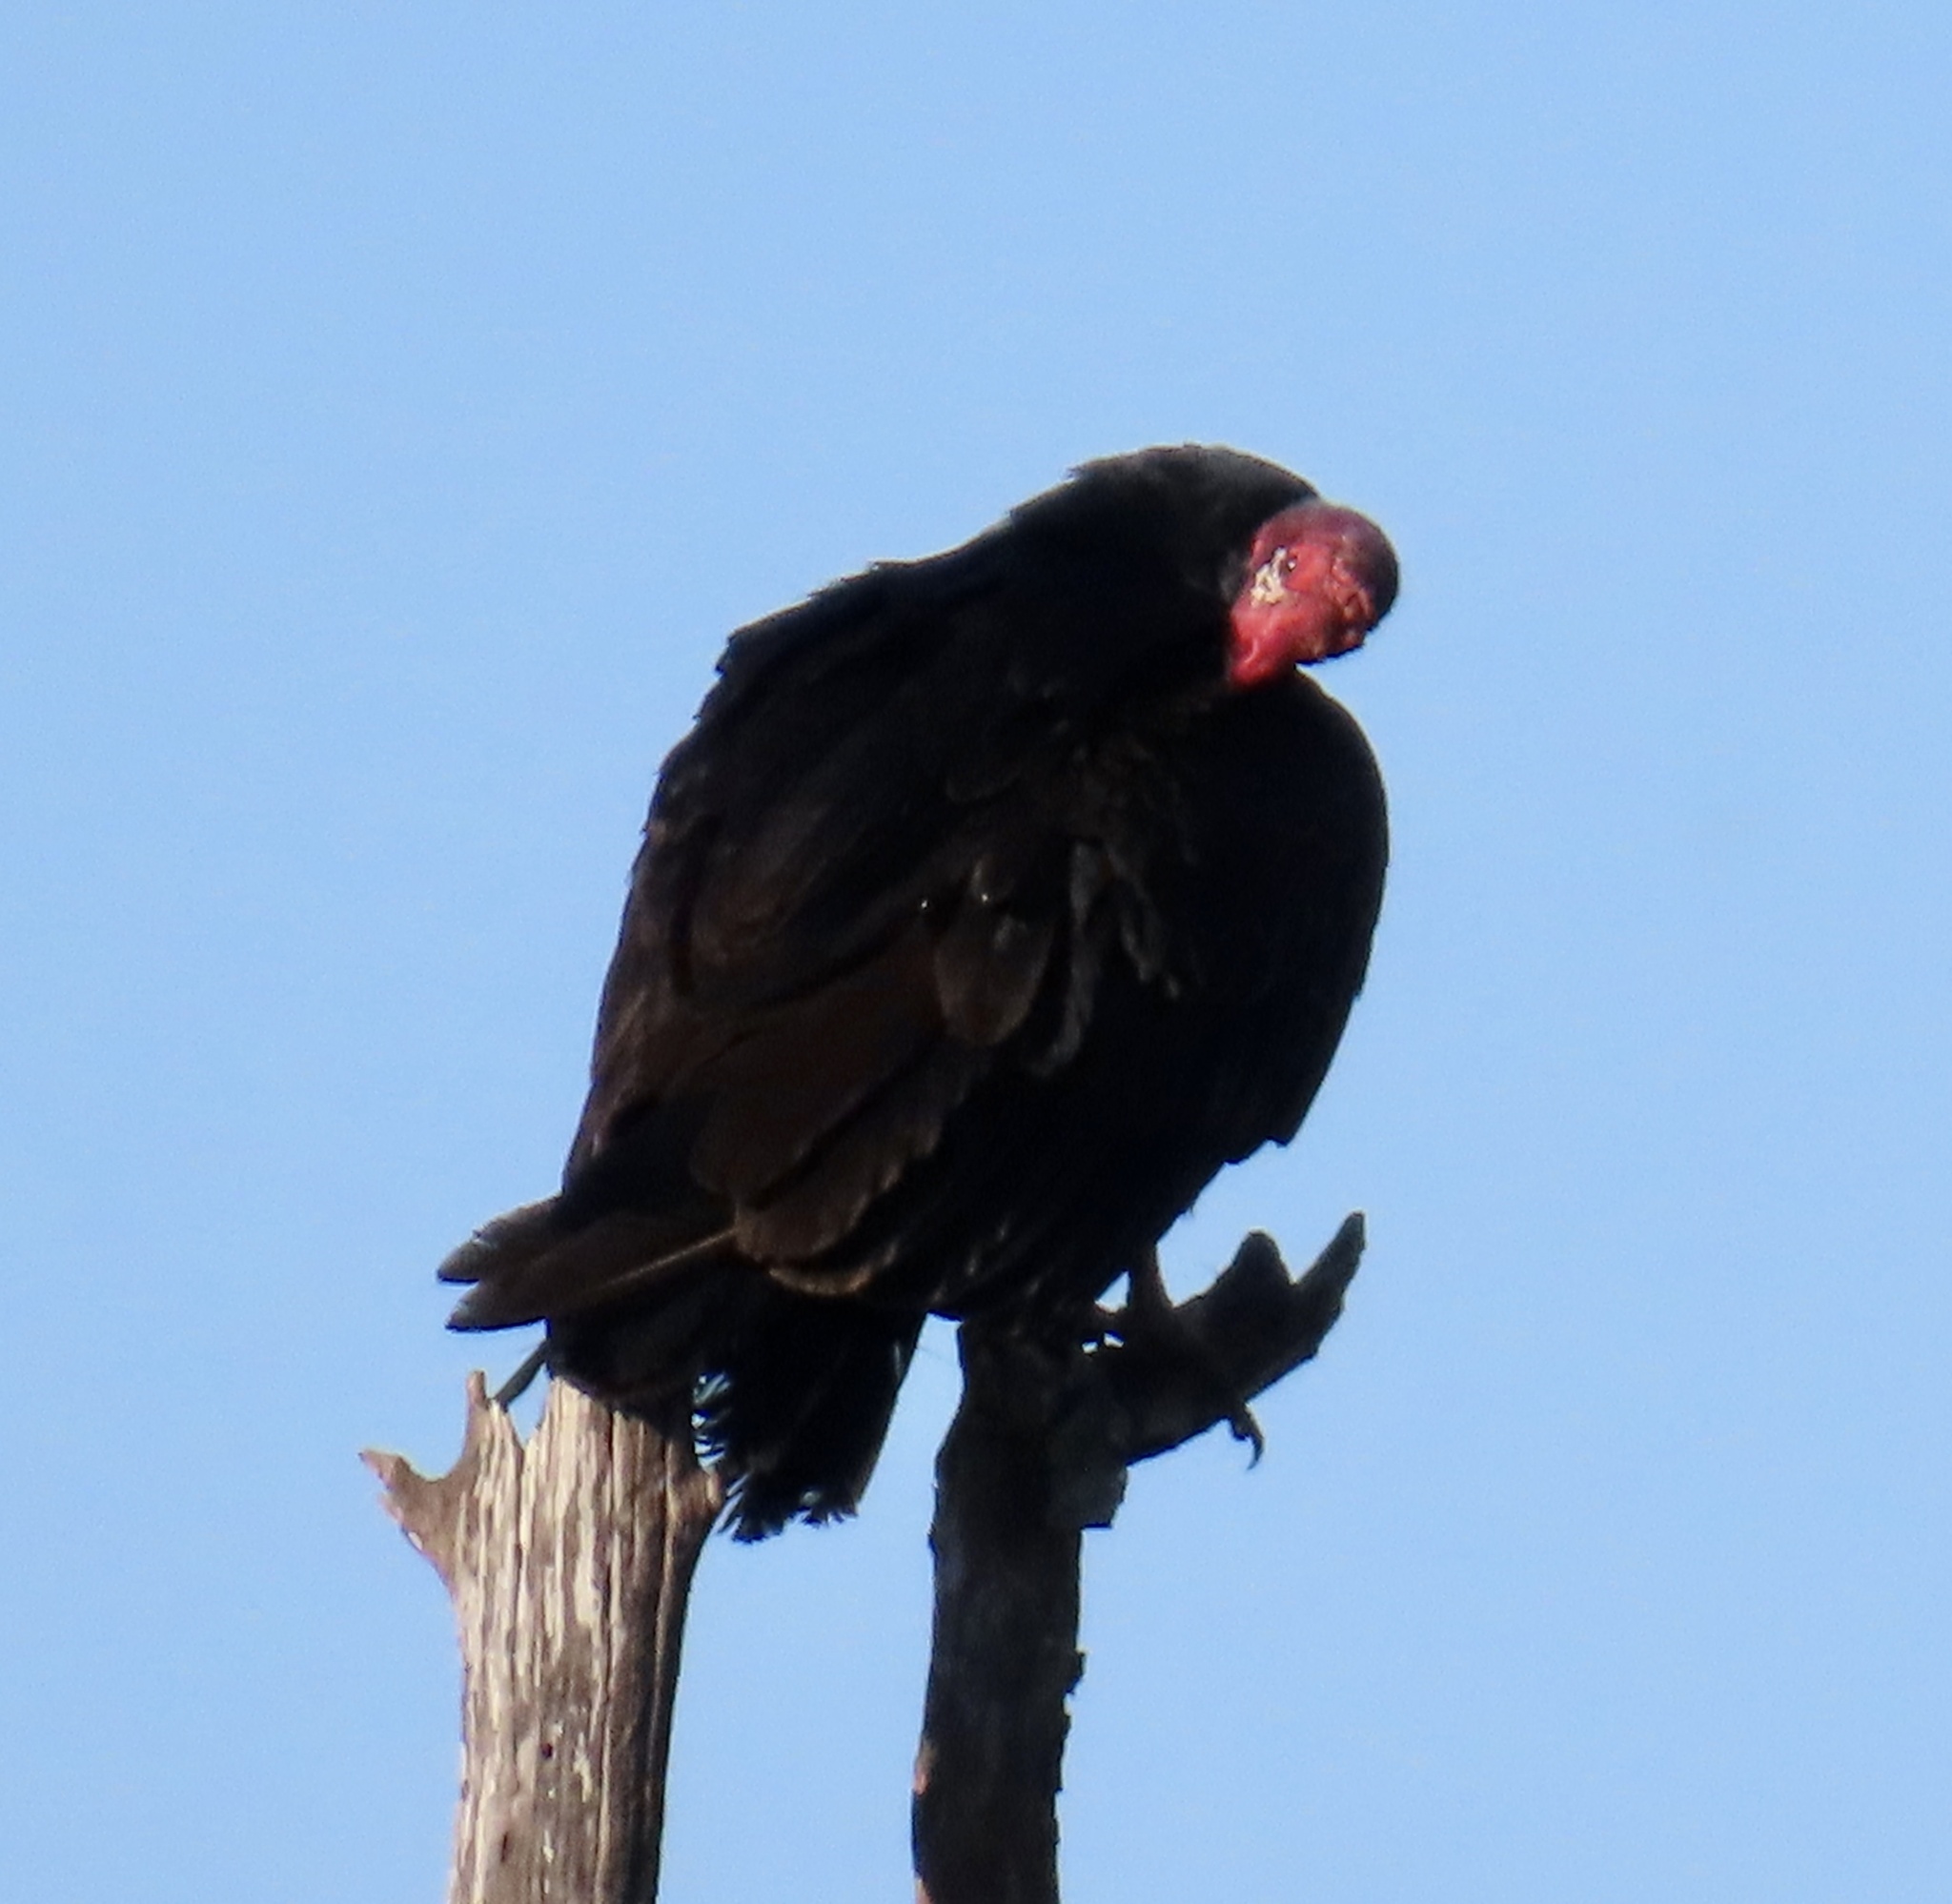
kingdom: Animalia
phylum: Chordata
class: Aves
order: Accipitriformes
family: Cathartidae
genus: Cathartes
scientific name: Cathartes aura
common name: Turkey vulture
